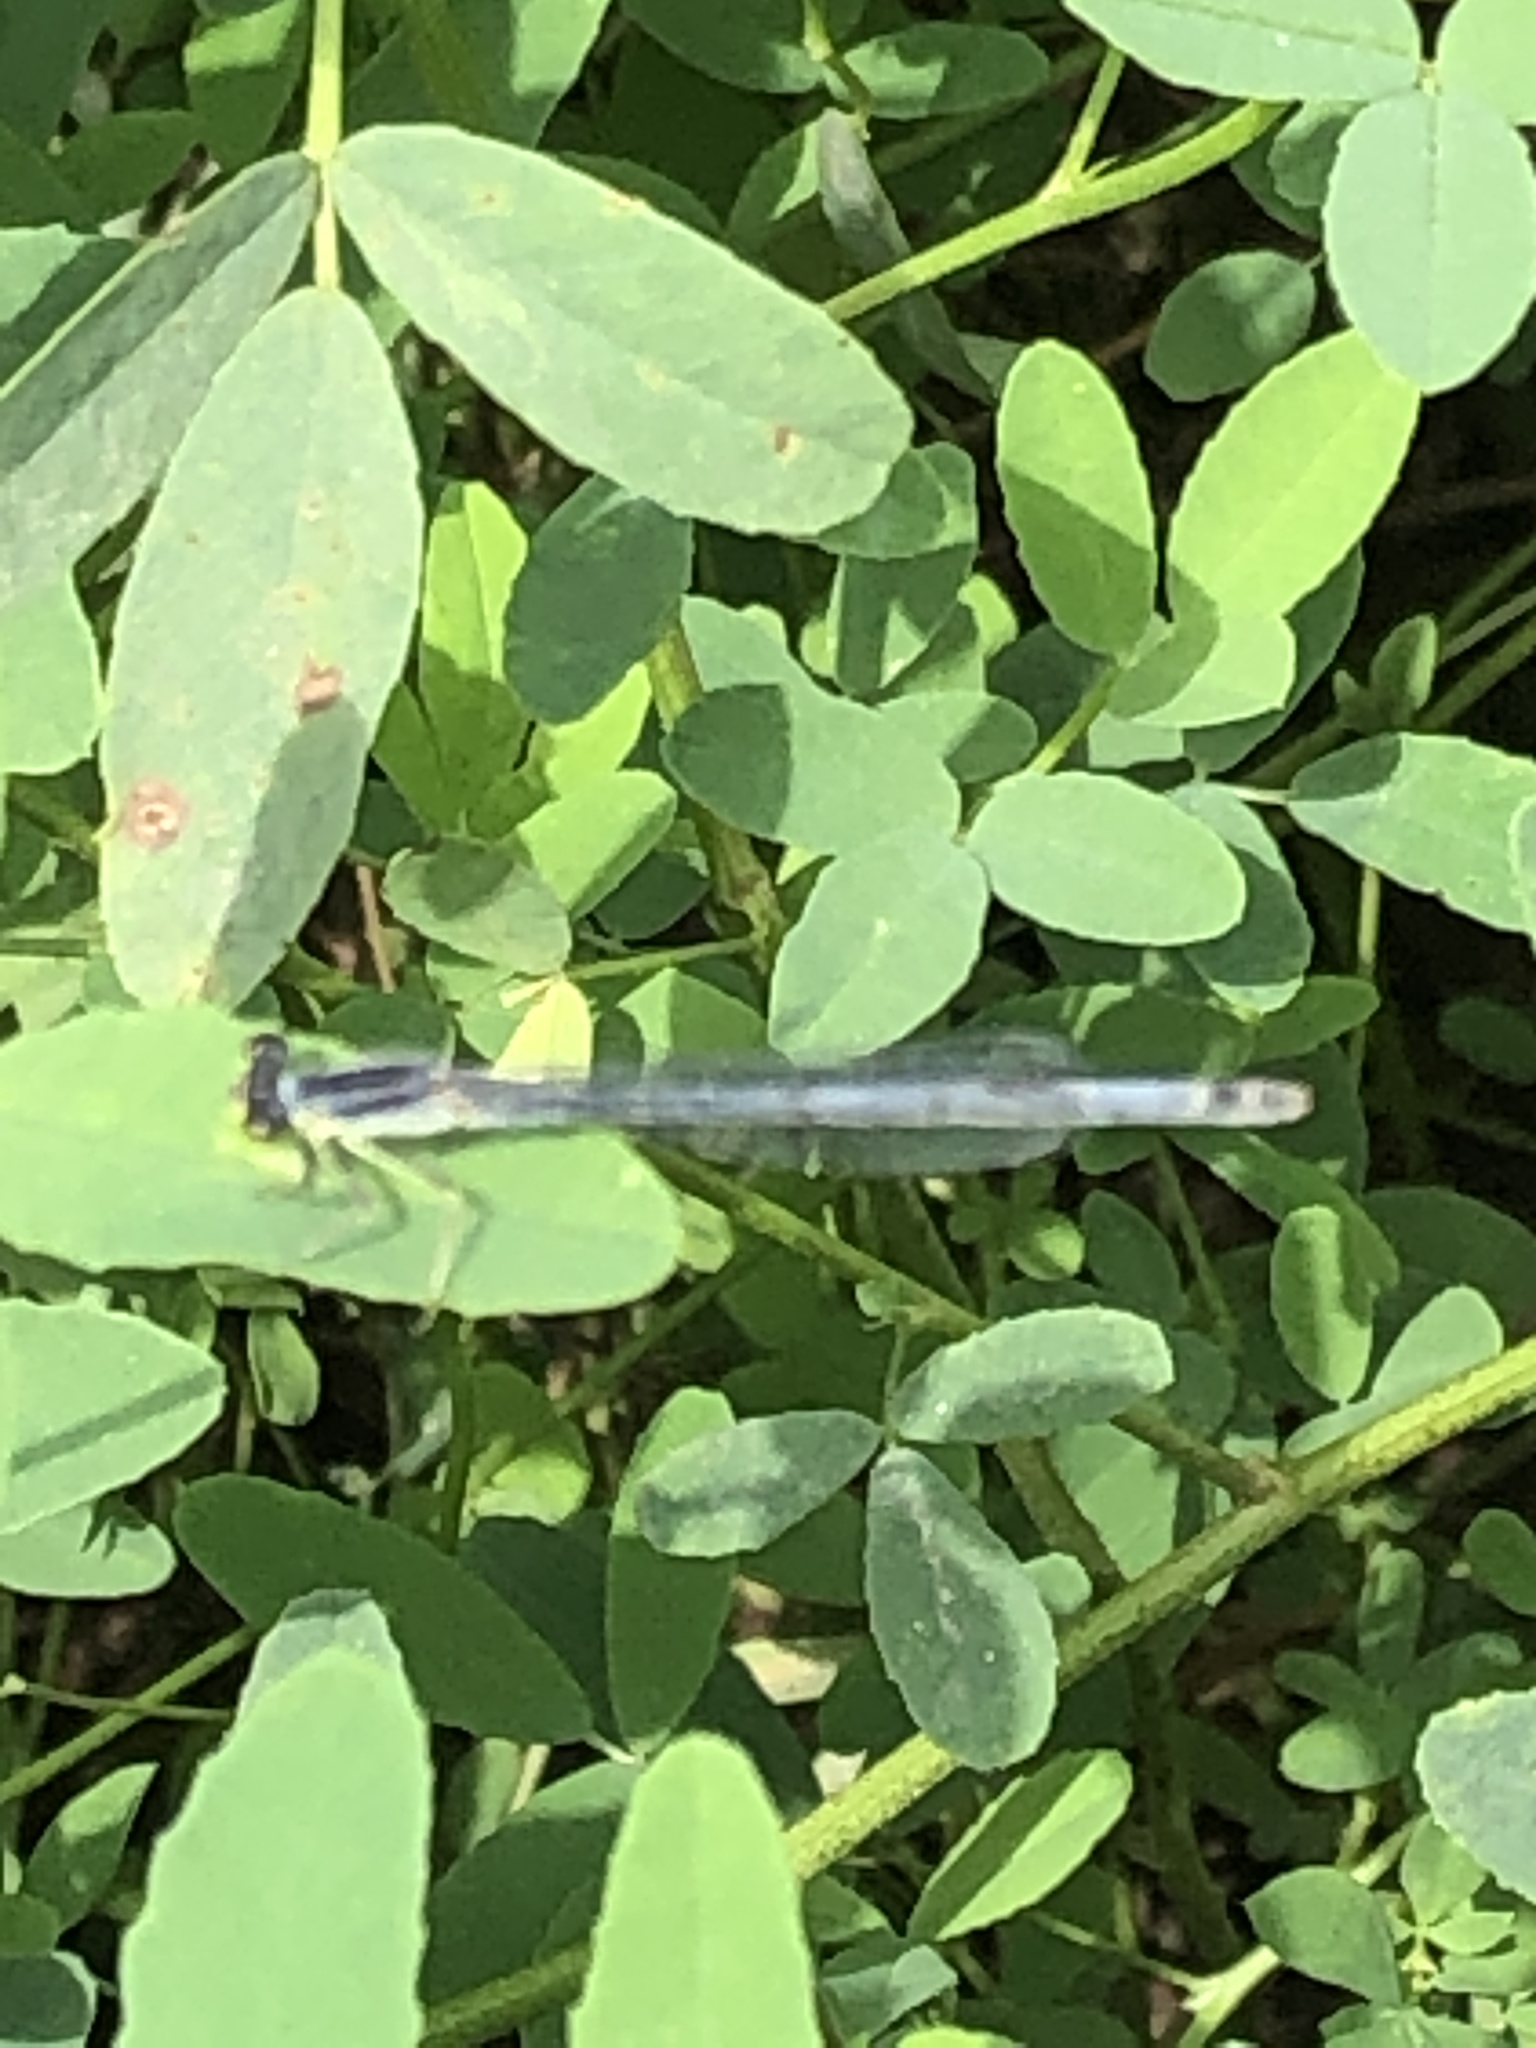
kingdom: Animalia
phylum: Arthropoda
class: Insecta
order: Odonata
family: Coenagrionidae
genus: Ischnura
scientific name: Ischnura verticalis
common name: Eastern forktail
